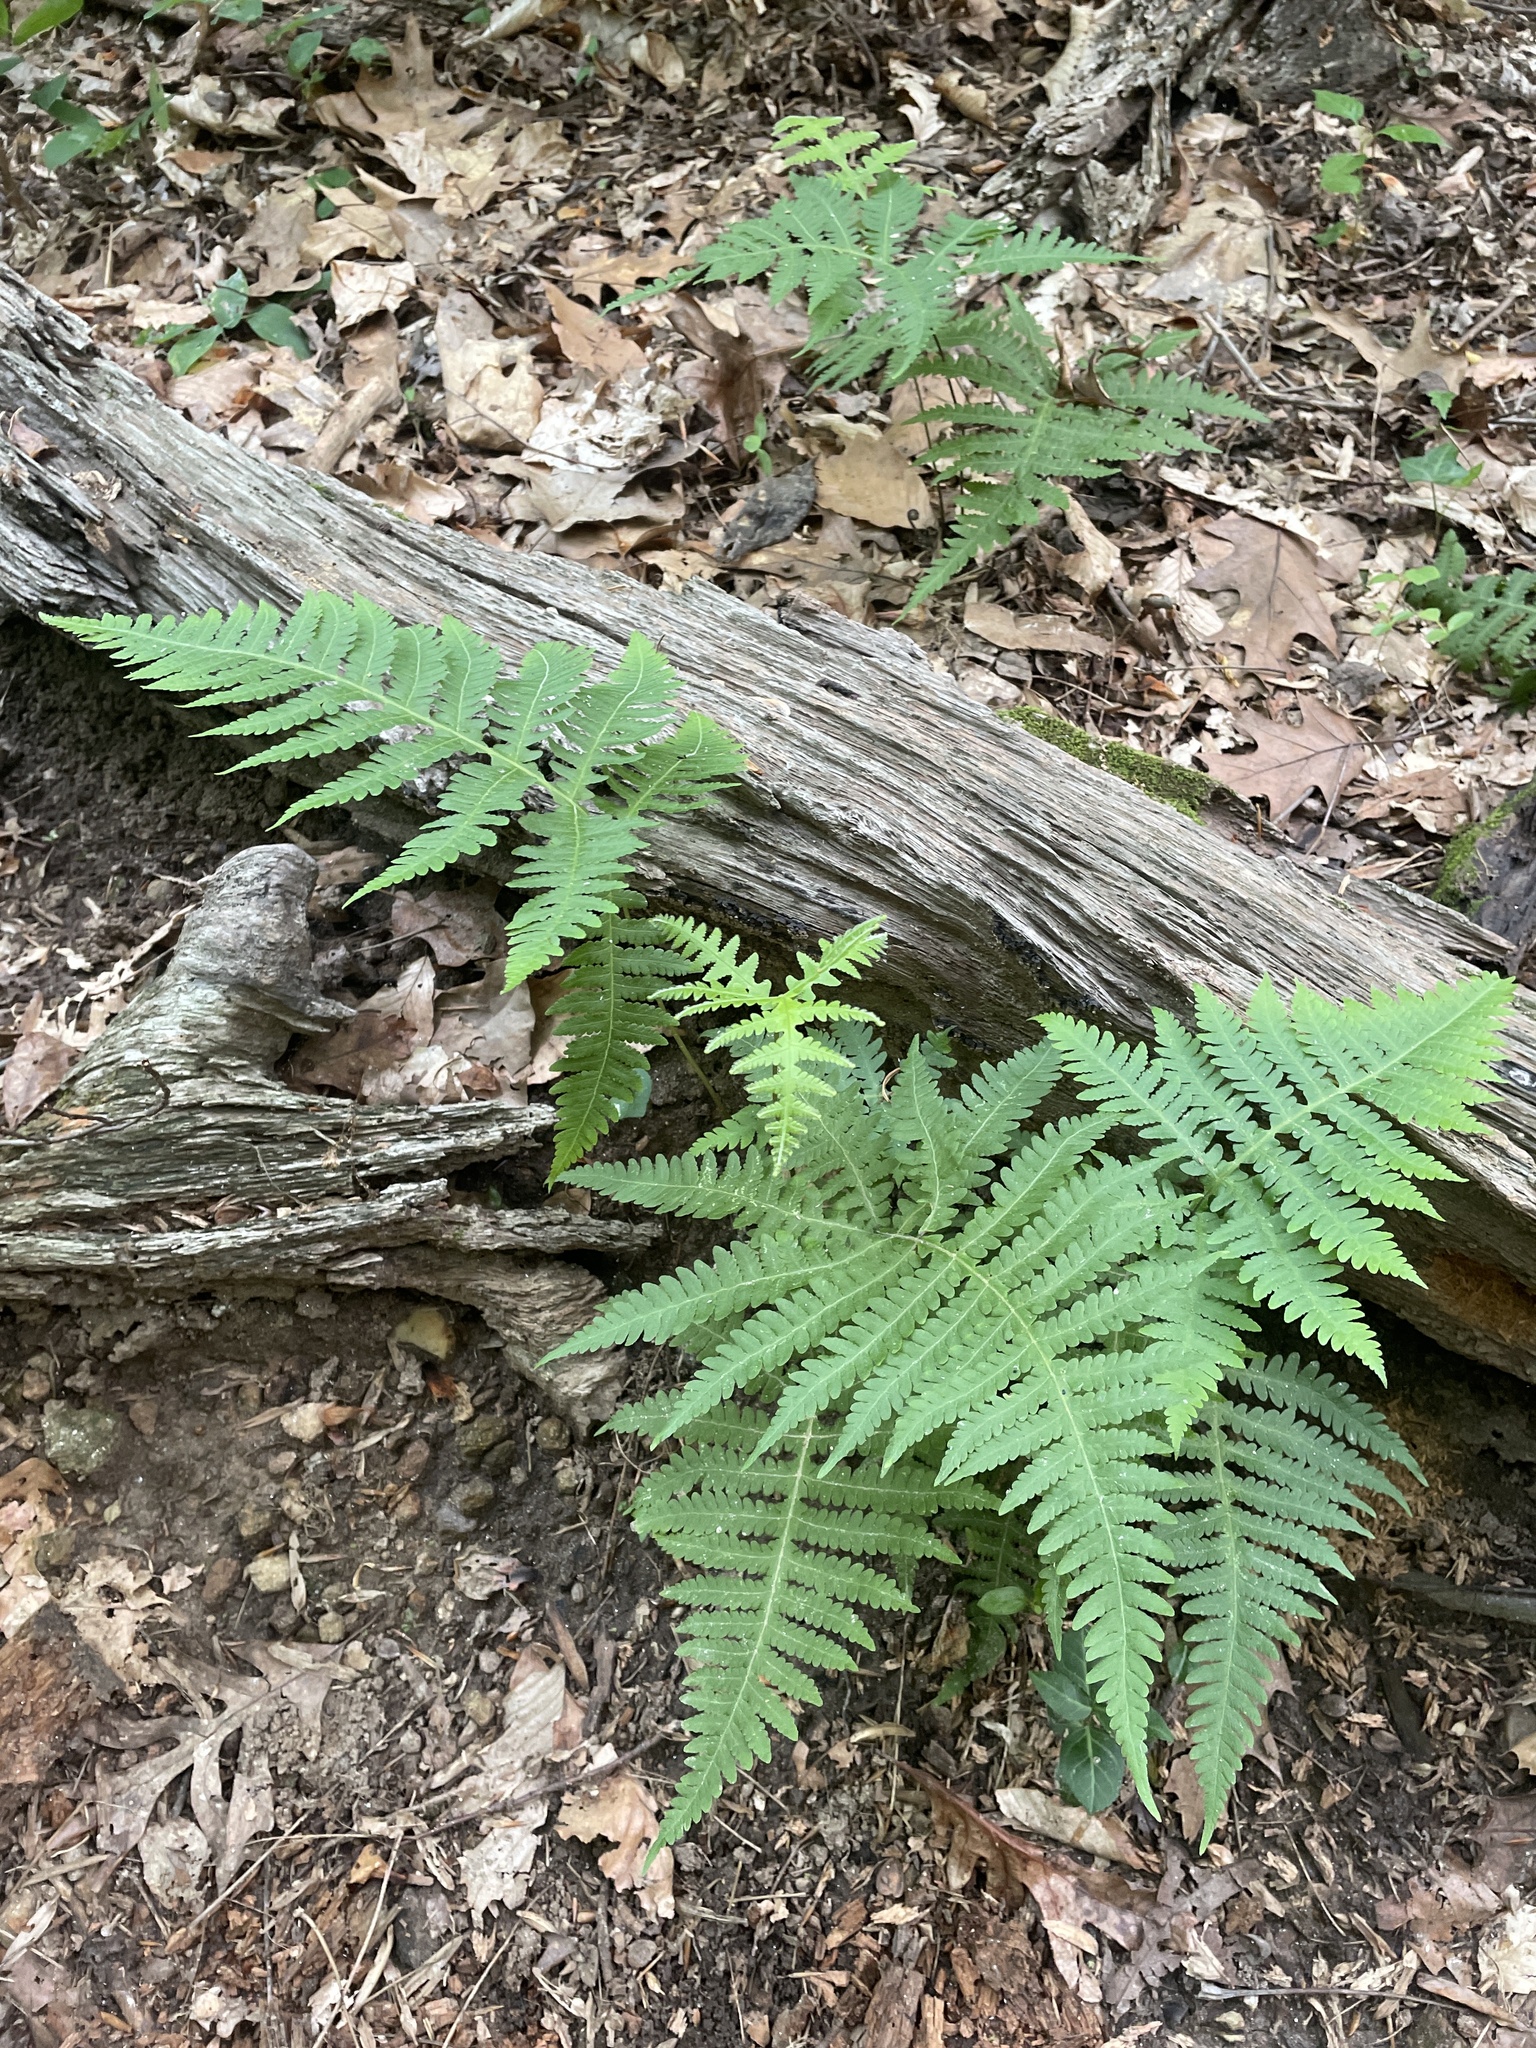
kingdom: Plantae
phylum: Tracheophyta
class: Polypodiopsida
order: Polypodiales
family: Thelypteridaceae
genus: Phegopteris
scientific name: Phegopteris hexagonoptera
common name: Broad beech fern
